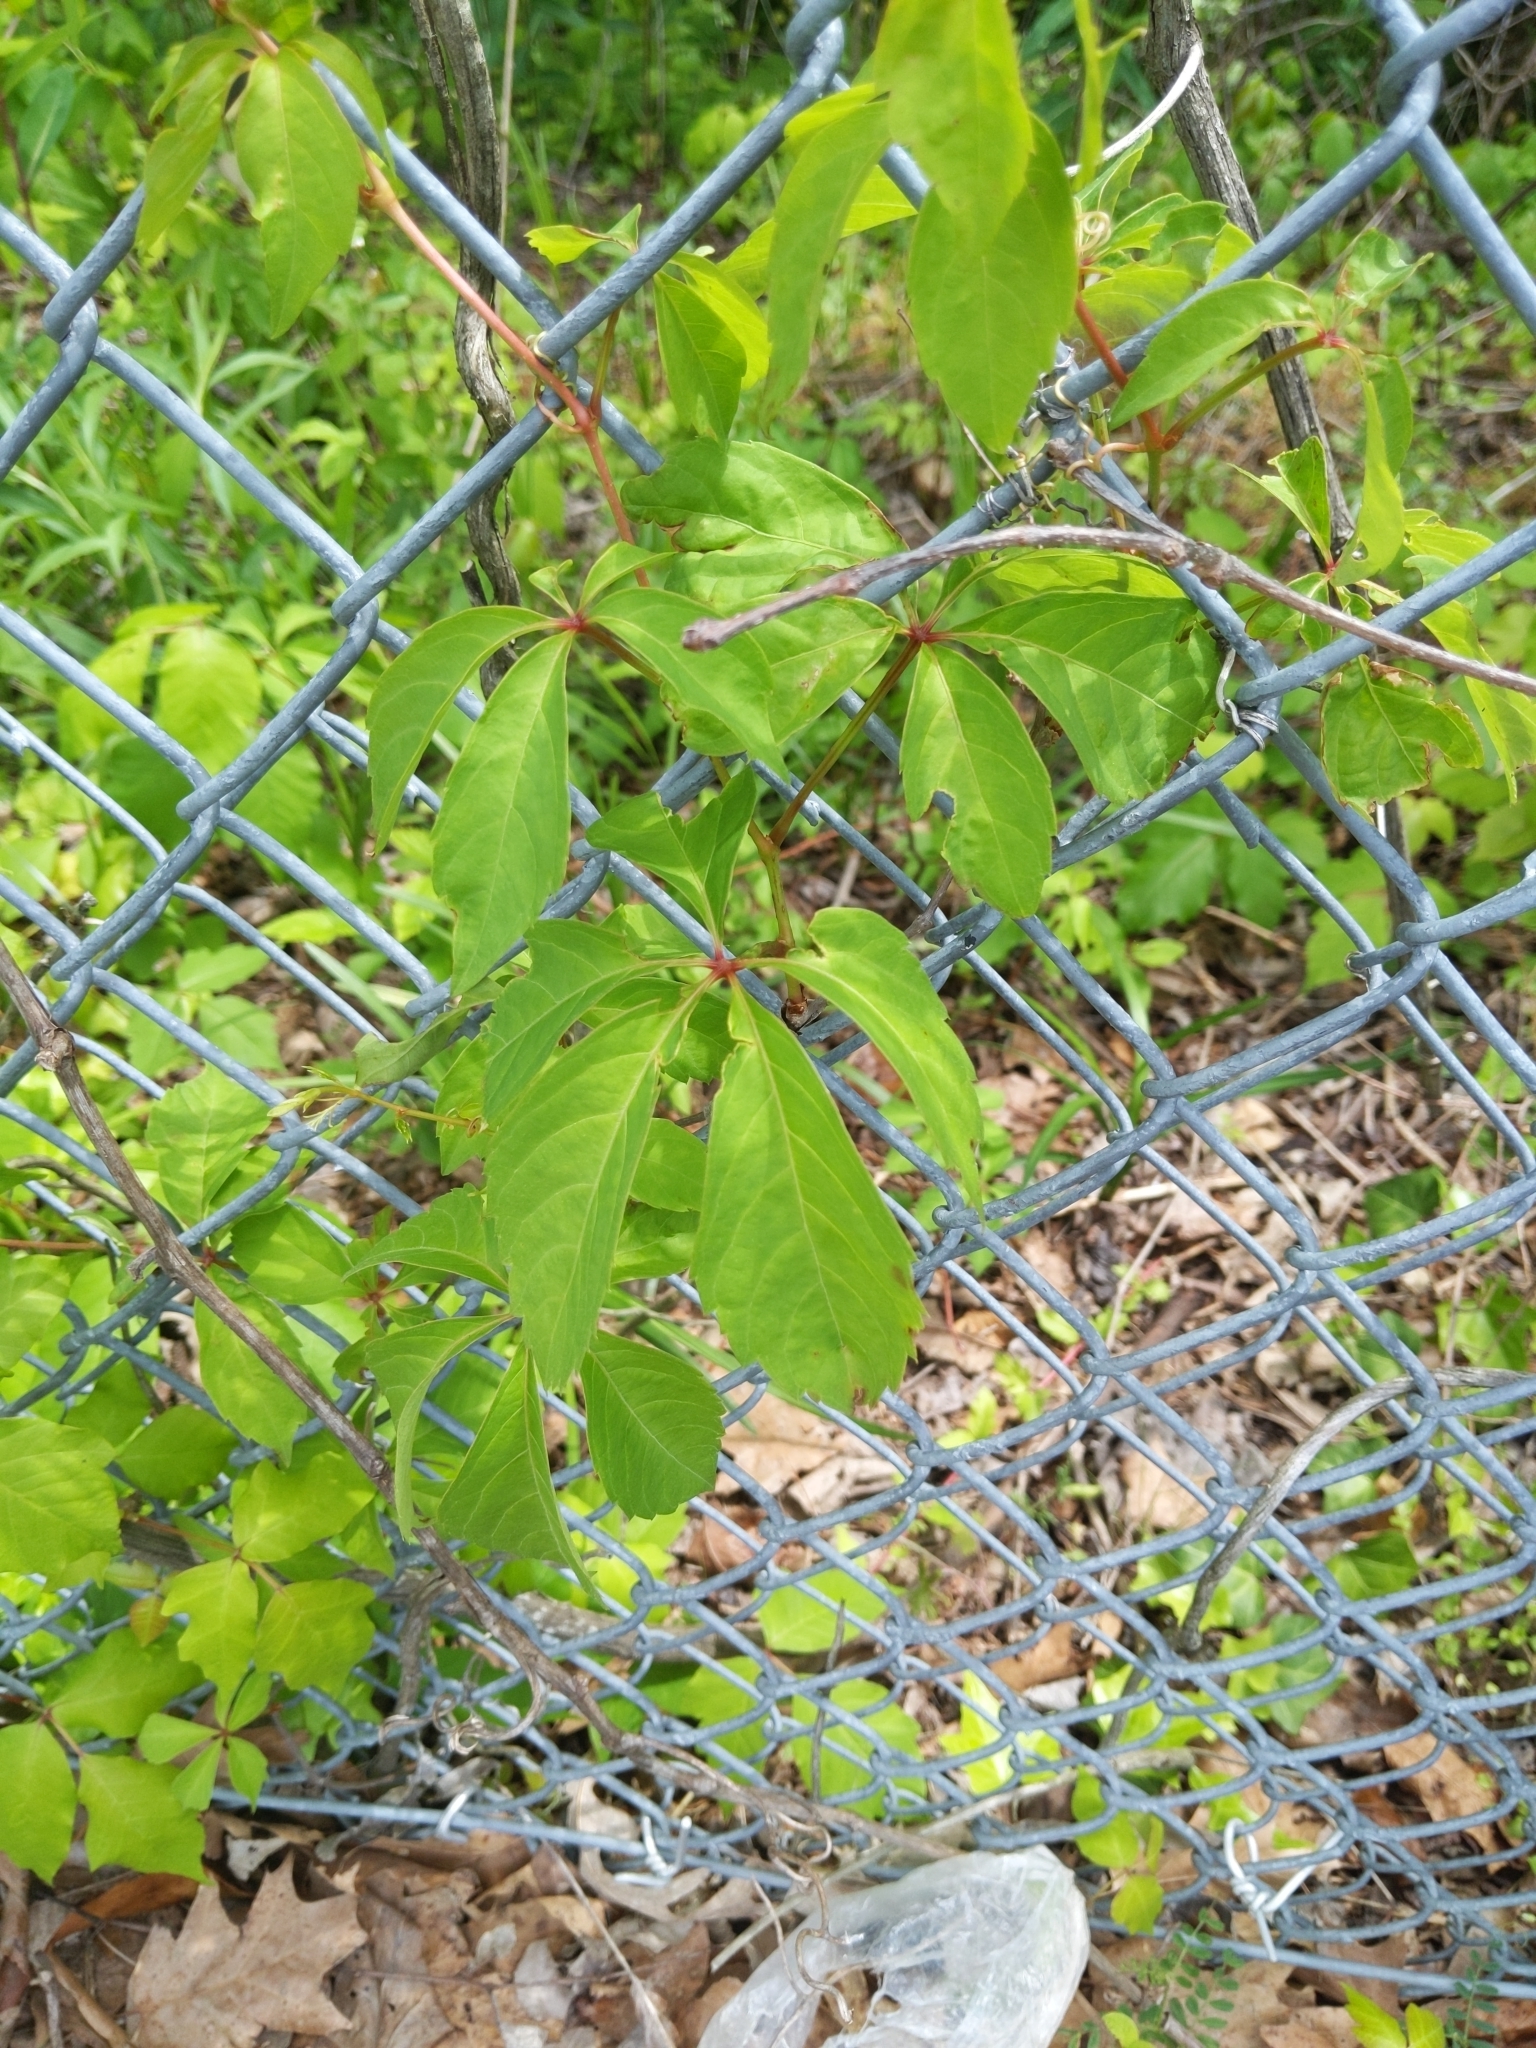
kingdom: Plantae
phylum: Tracheophyta
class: Magnoliopsida
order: Vitales
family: Vitaceae
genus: Parthenocissus
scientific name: Parthenocissus quinquefolia
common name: Virginia-creeper
